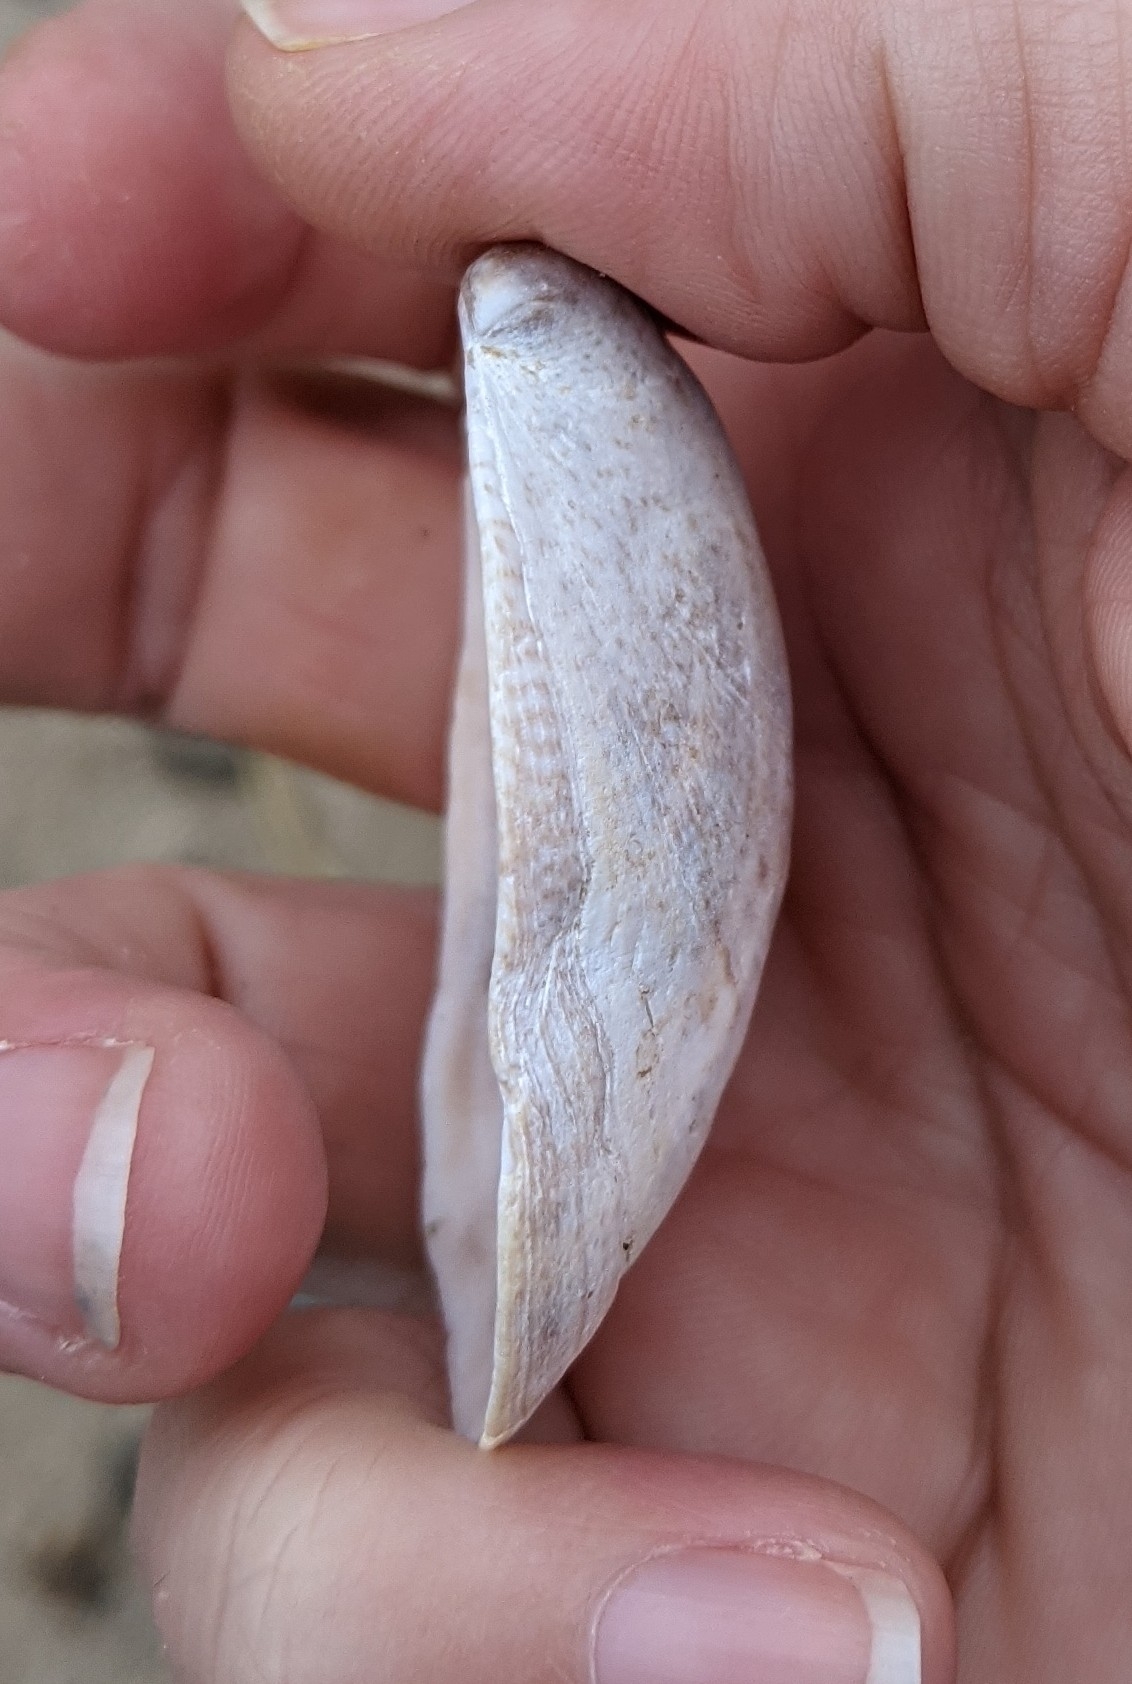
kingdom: Animalia
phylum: Mollusca
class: Gastropoda
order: Littorinimorpha
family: Calyptraeidae
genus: Crepidula
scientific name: Crepidula fornicata
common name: Slipper limpet
